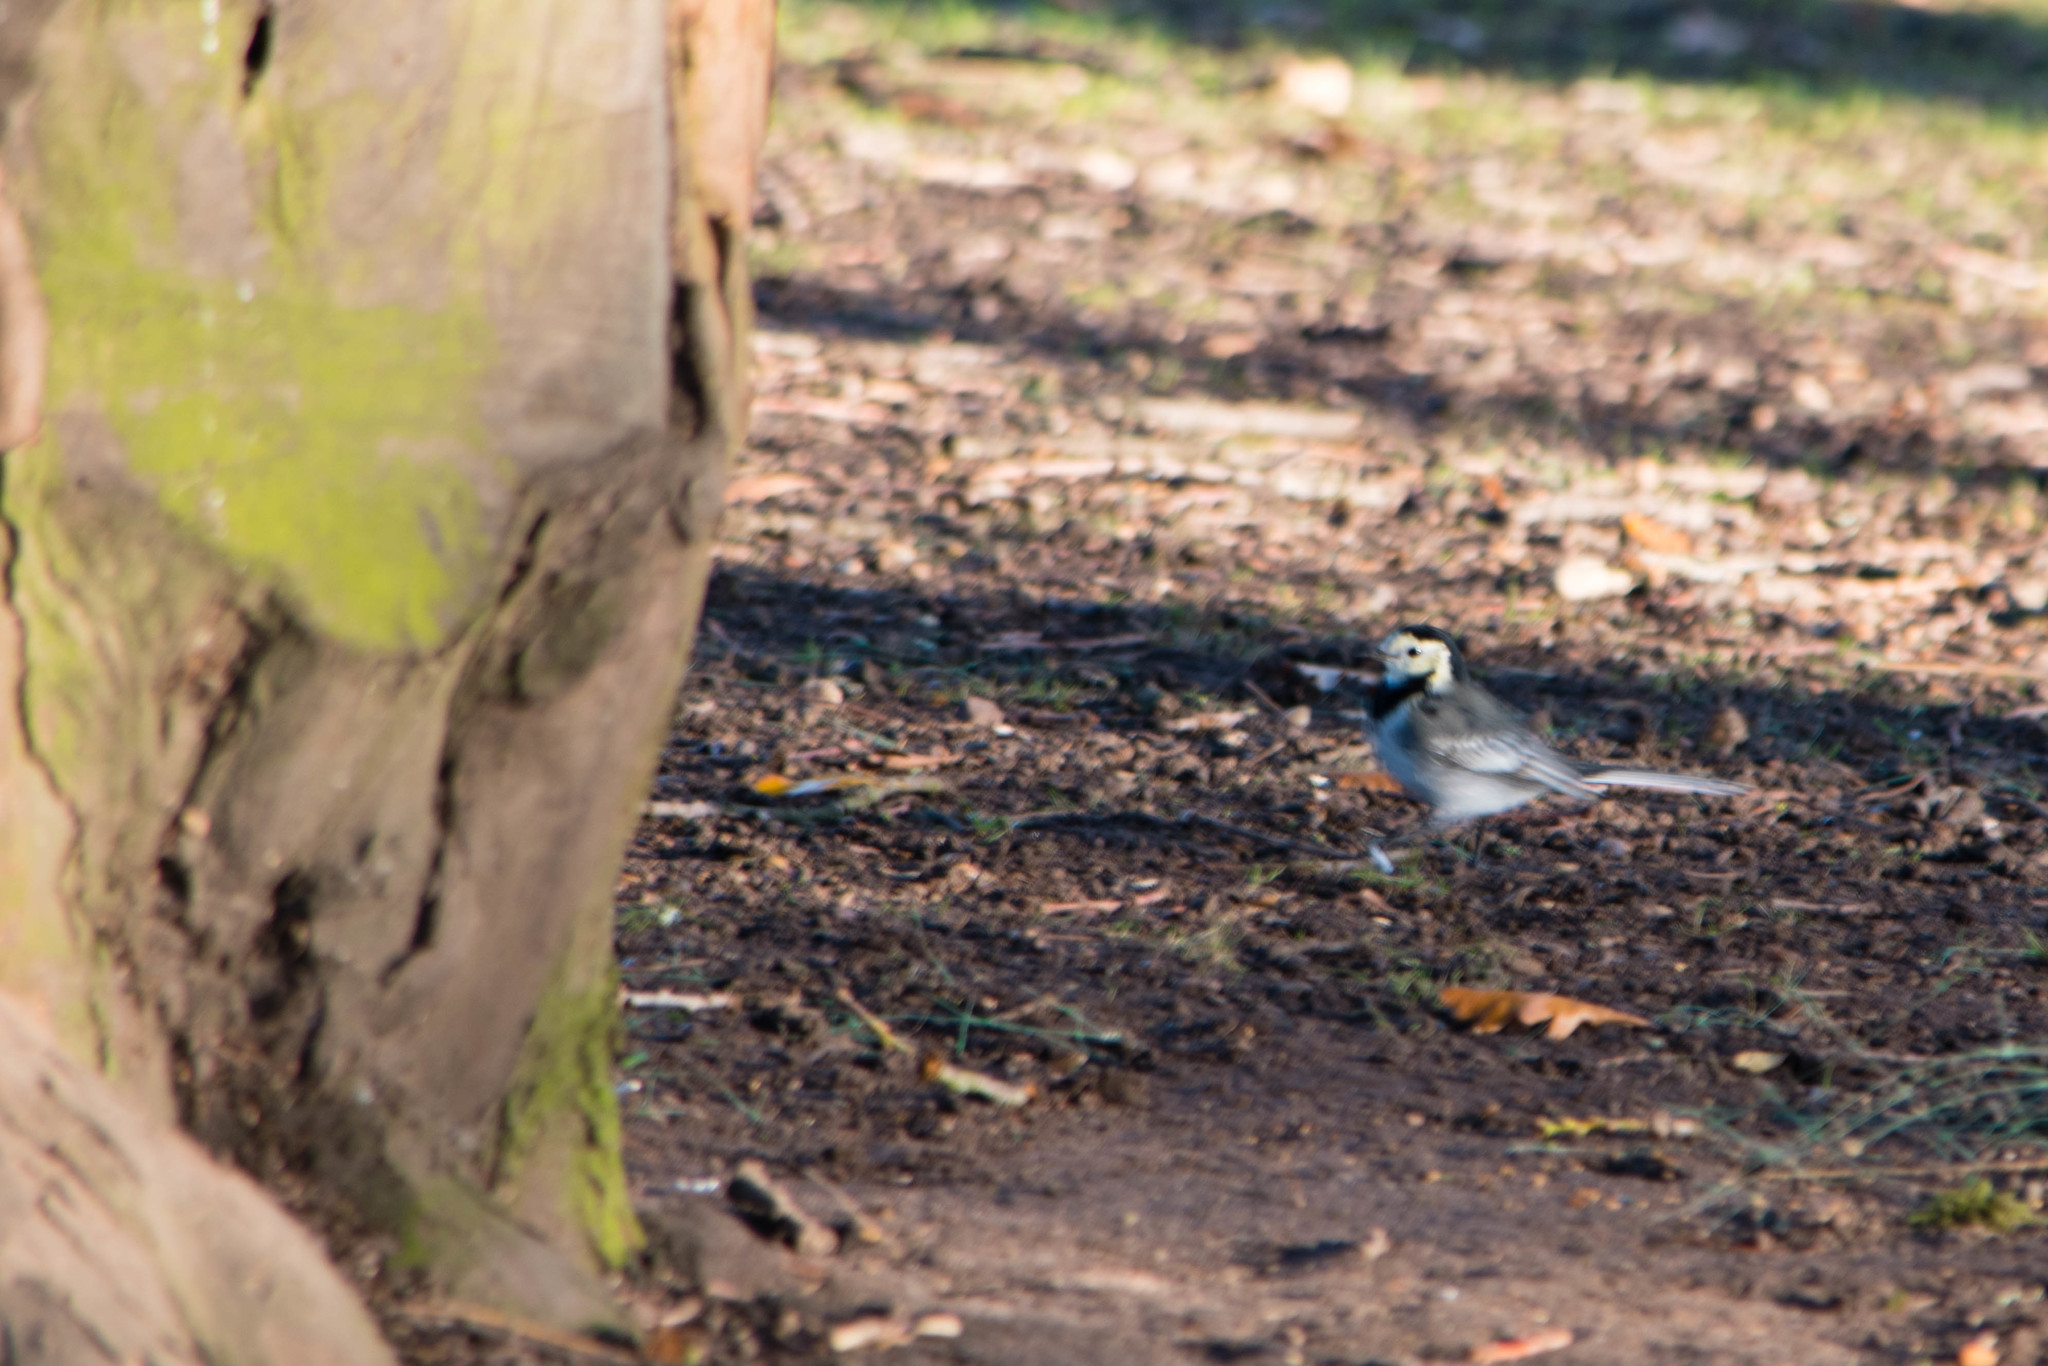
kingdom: Animalia
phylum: Chordata
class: Aves
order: Passeriformes
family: Motacillidae
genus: Motacilla
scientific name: Motacilla alba
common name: White wagtail
